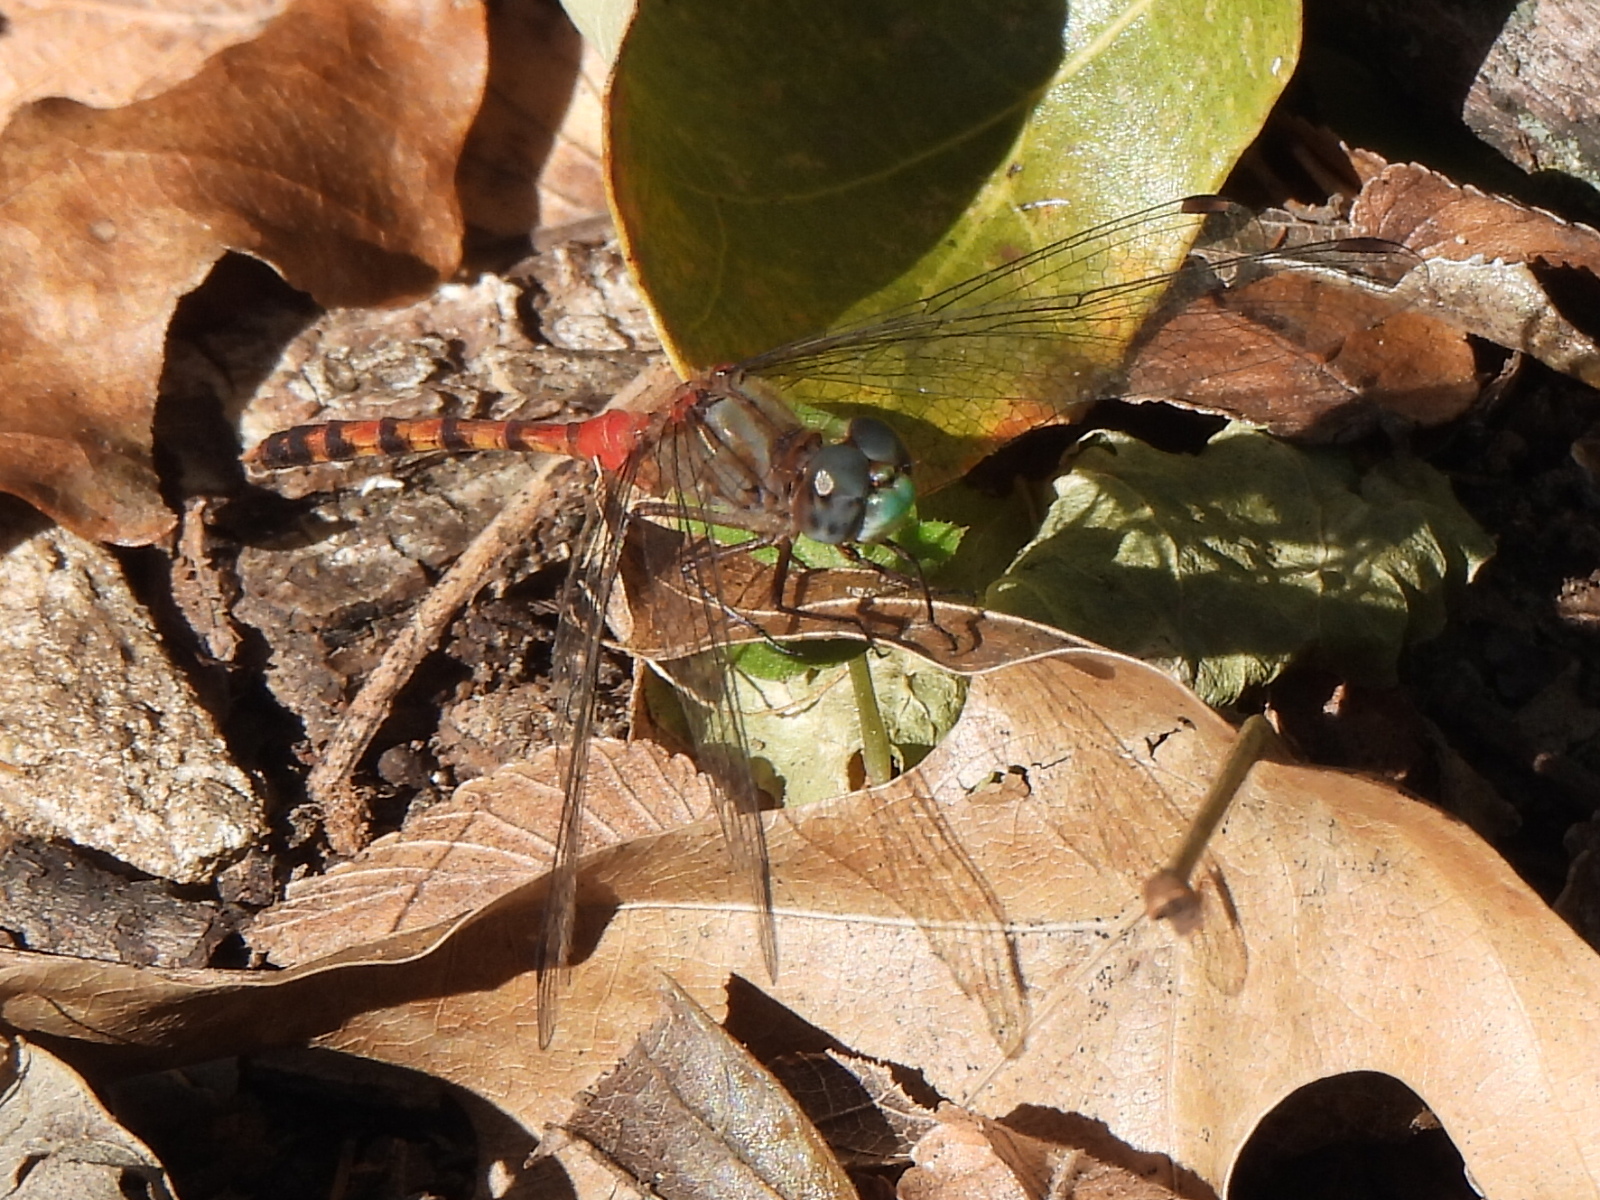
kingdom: Animalia
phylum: Arthropoda
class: Insecta
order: Odonata
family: Libellulidae
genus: Sympetrum
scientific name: Sympetrum ambiguum
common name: Blue-faced meadowhawk
